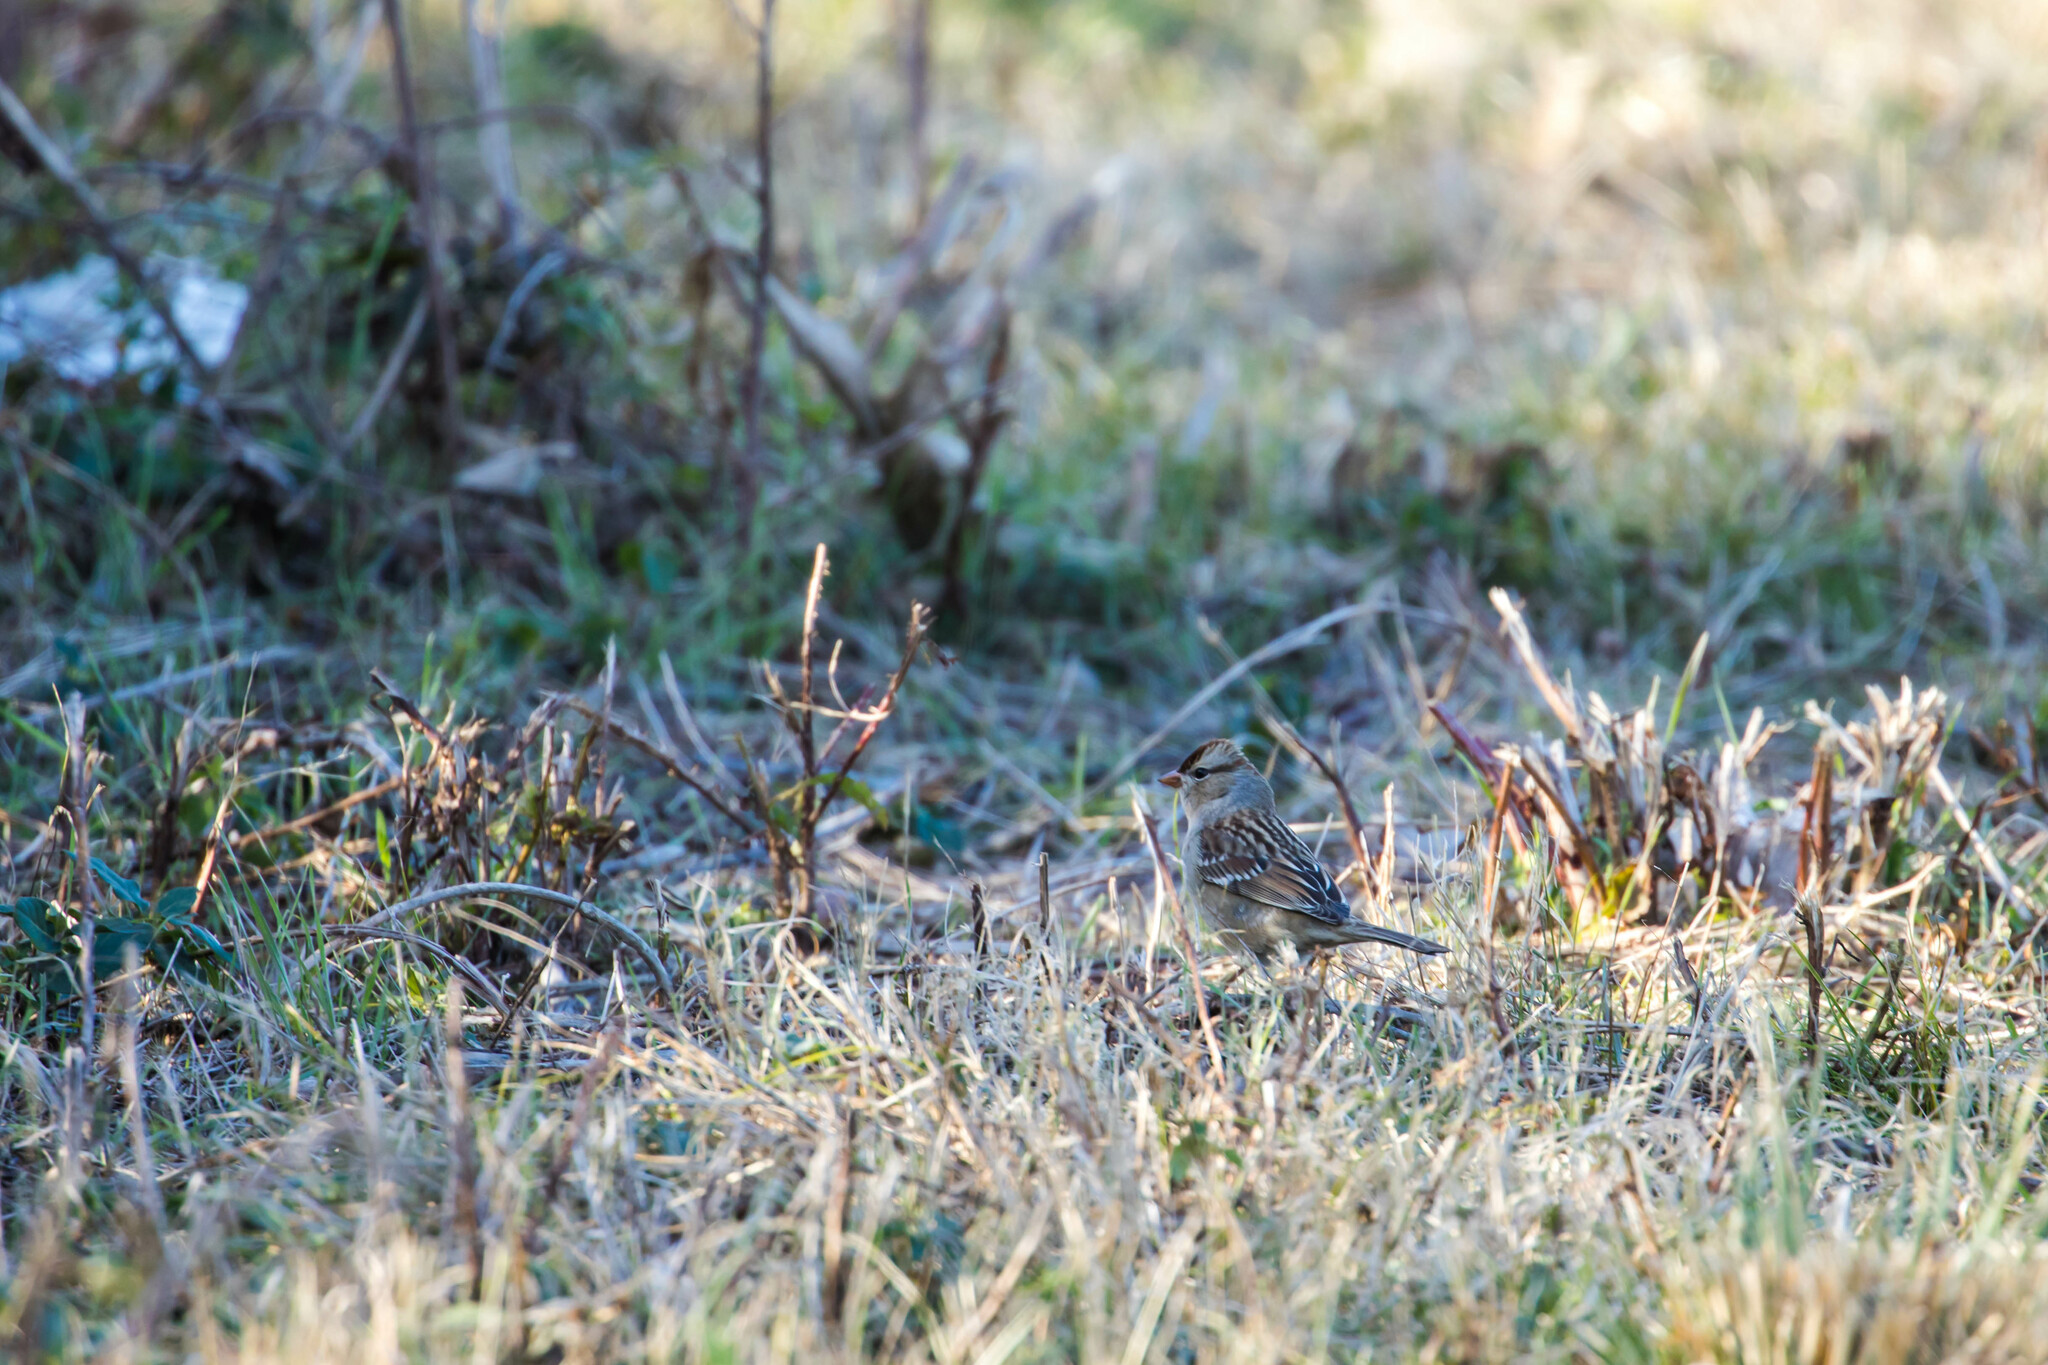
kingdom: Animalia
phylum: Chordata
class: Aves
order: Passeriformes
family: Passerellidae
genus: Zonotrichia
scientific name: Zonotrichia leucophrys
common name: White-crowned sparrow
